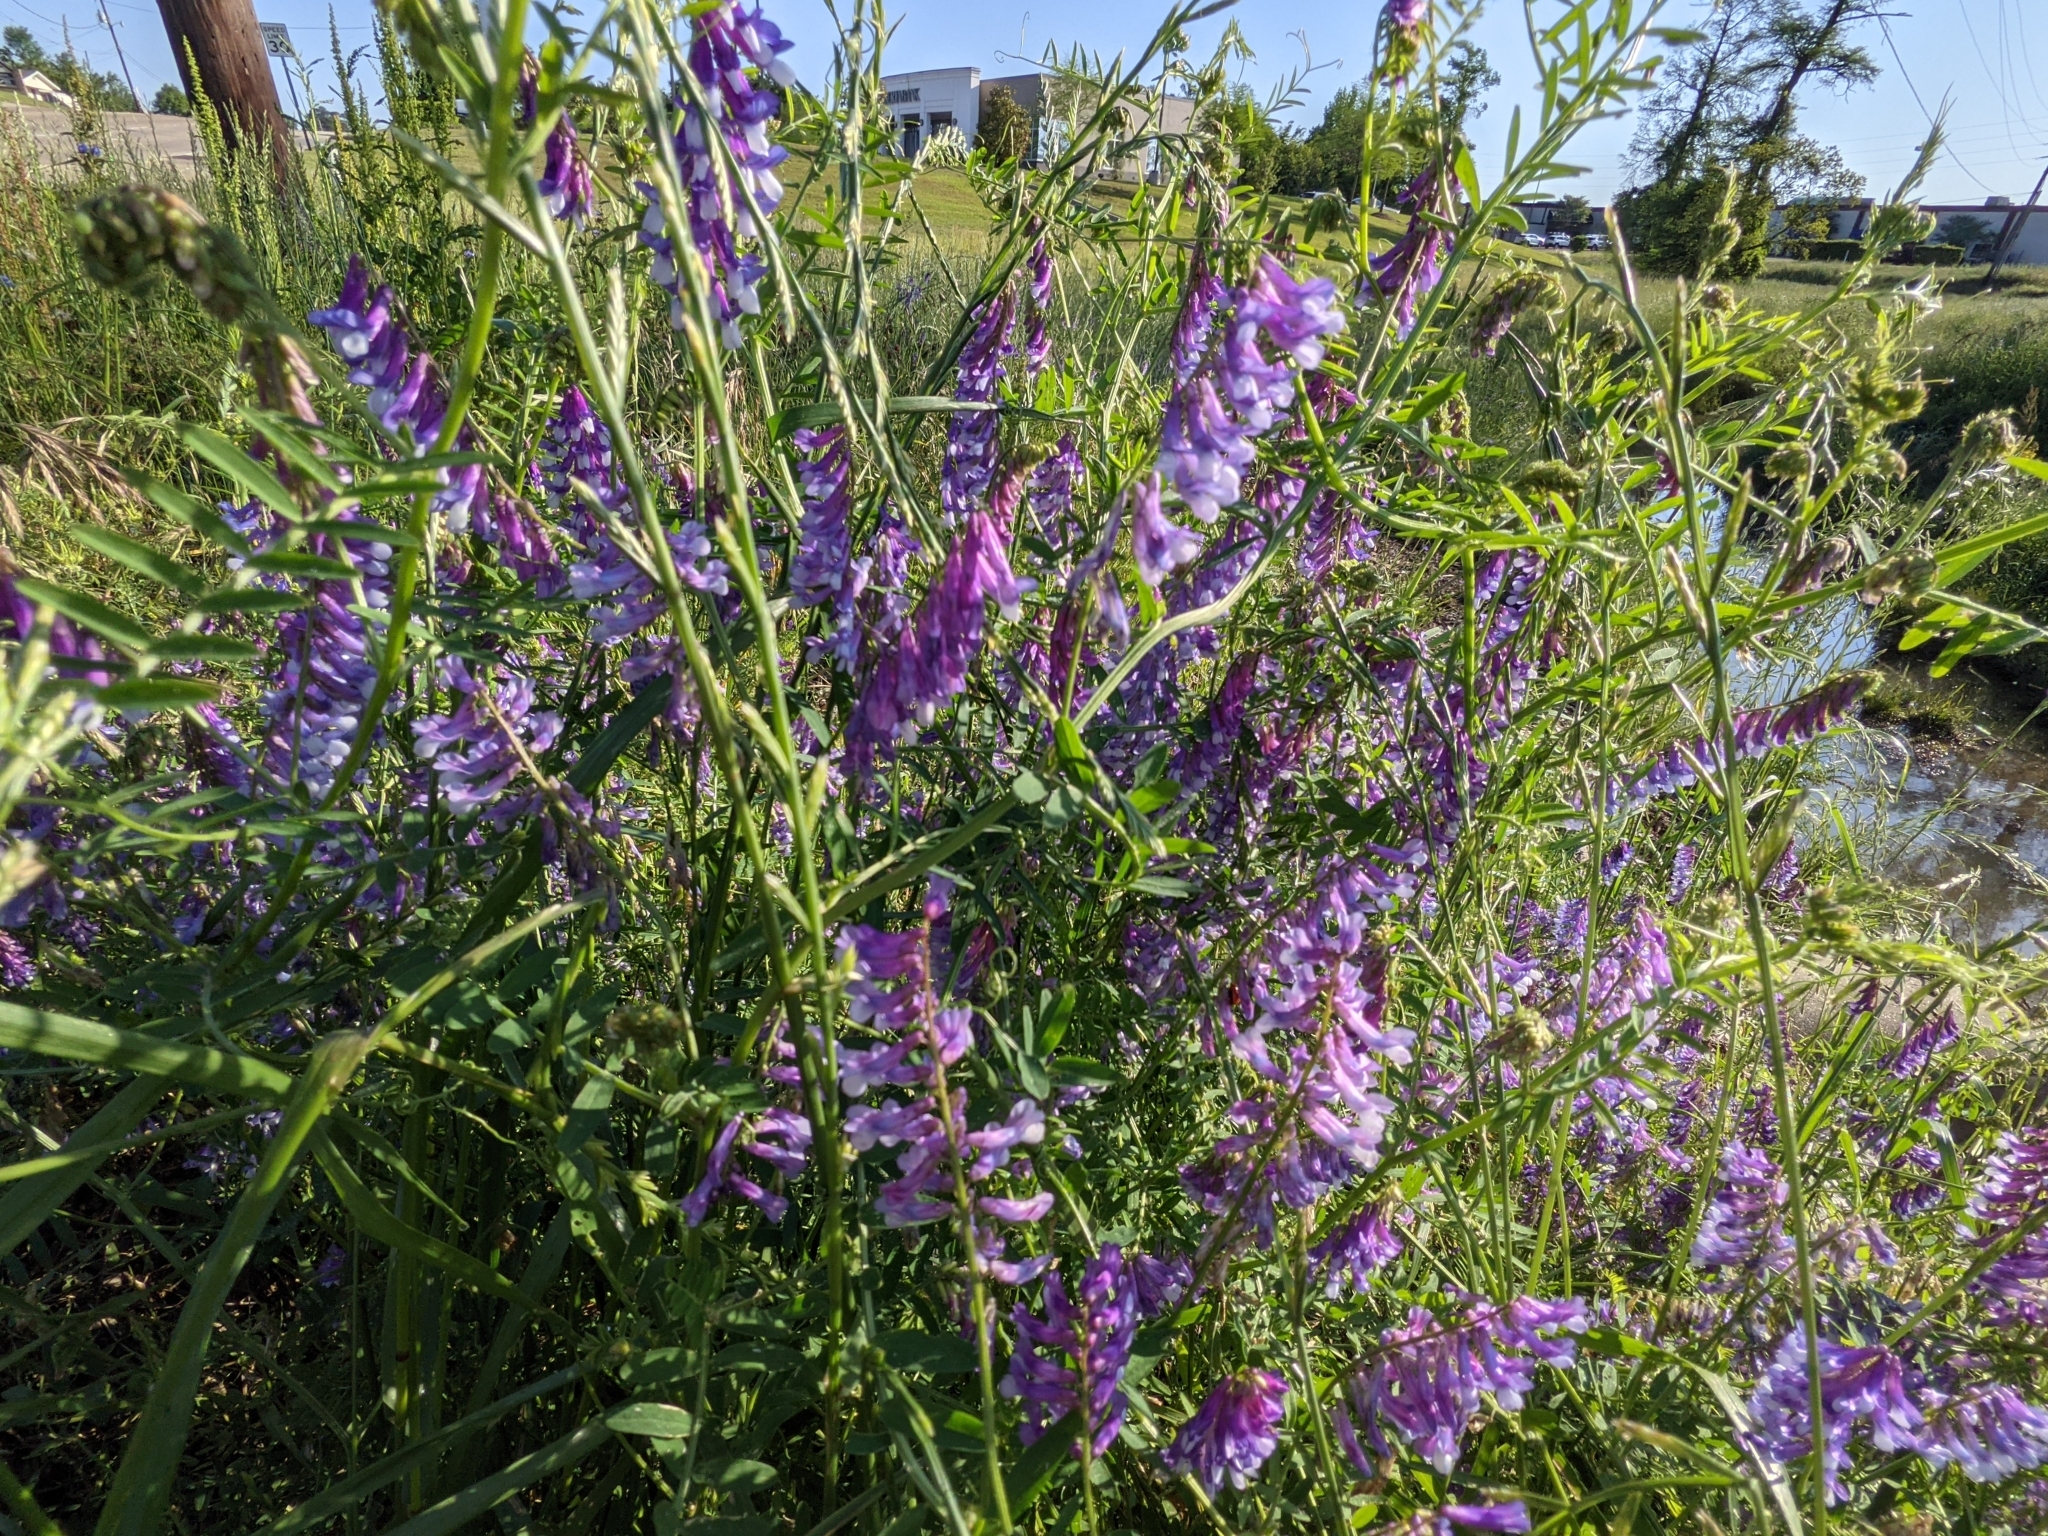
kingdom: Plantae
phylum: Tracheophyta
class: Magnoliopsida
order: Fabales
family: Fabaceae
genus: Vicia
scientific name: Vicia villosa
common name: Fodder vetch
